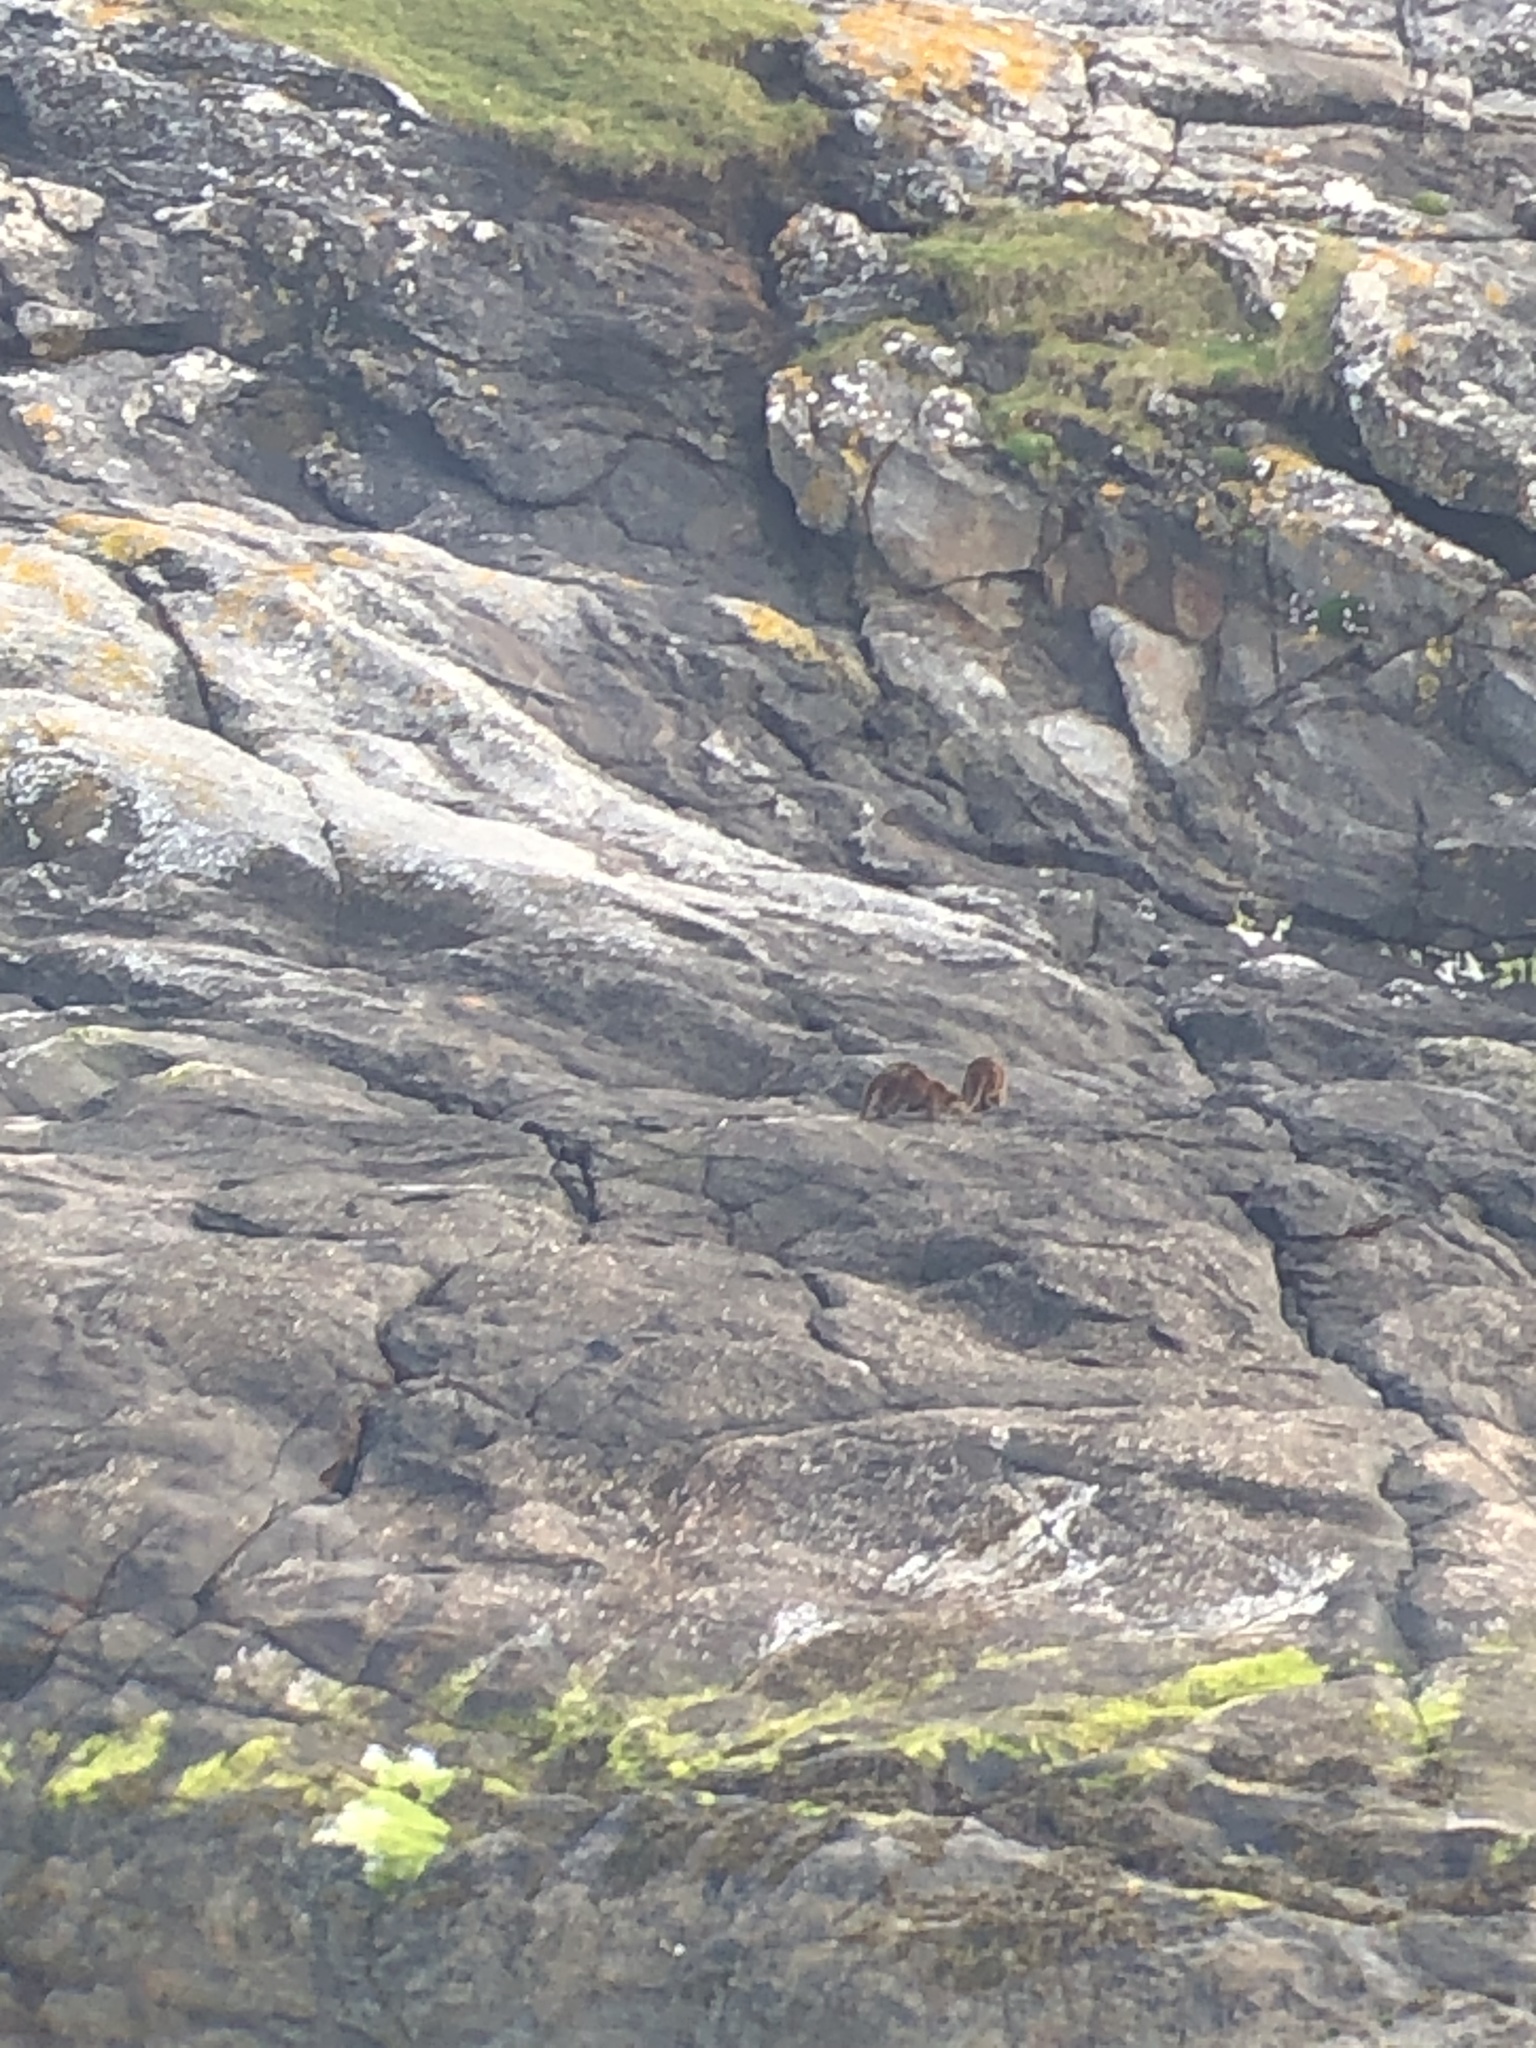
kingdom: Animalia
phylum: Chordata
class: Mammalia
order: Carnivora
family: Mustelidae
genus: Lutra
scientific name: Lutra lutra
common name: European otter
